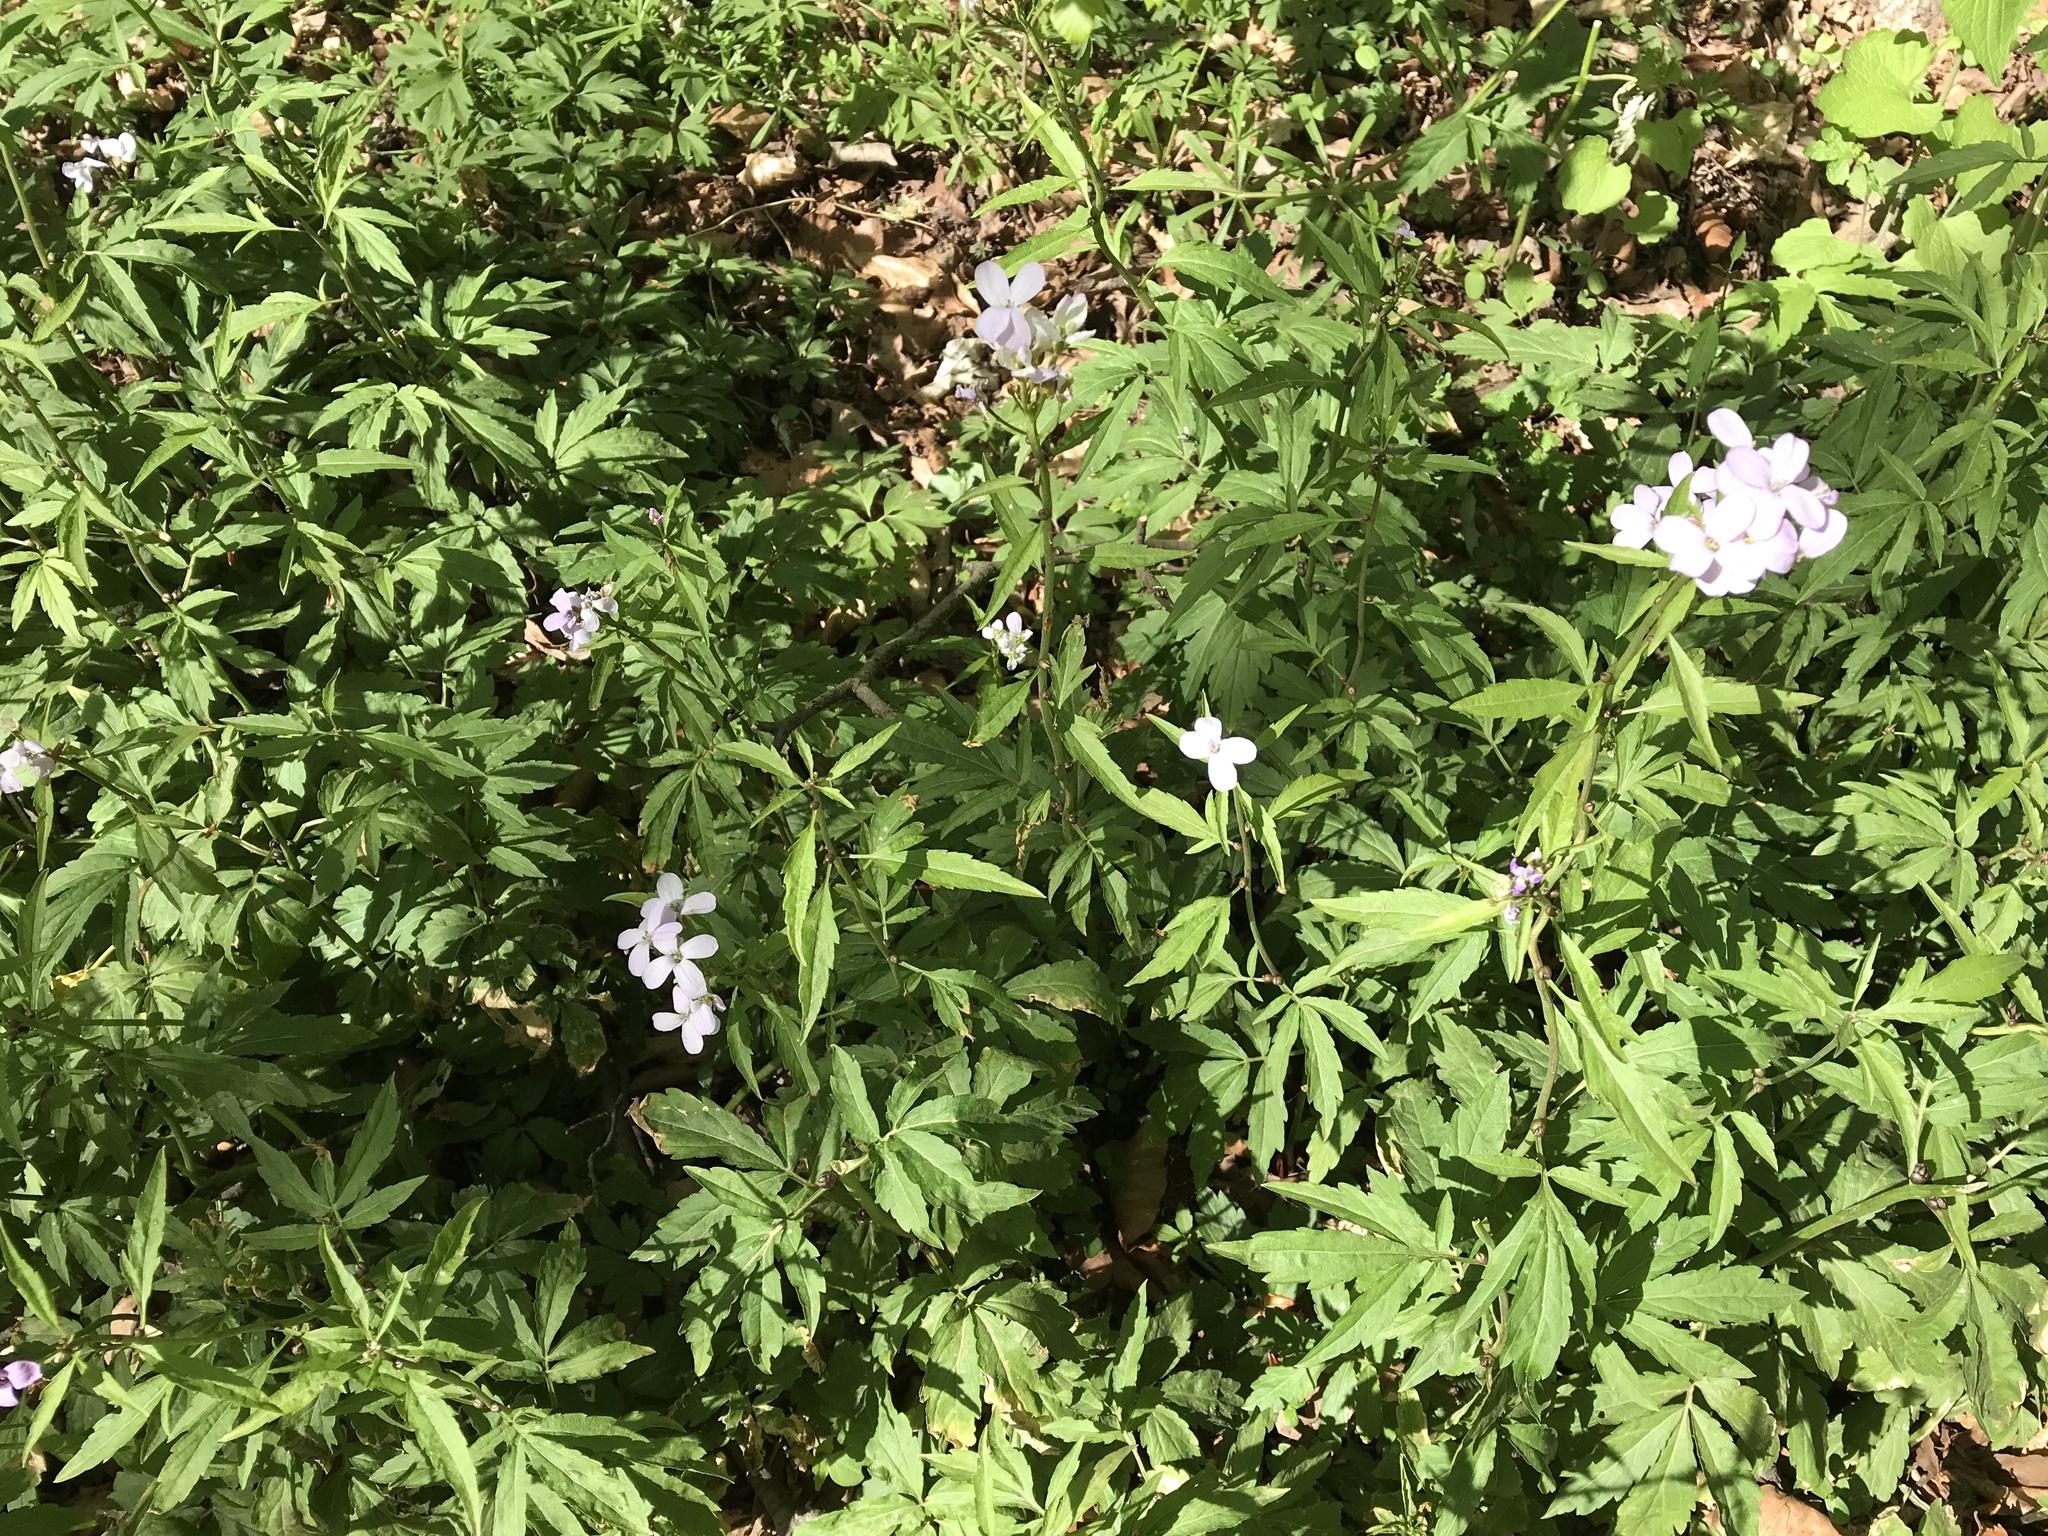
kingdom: Plantae
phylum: Tracheophyta
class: Magnoliopsida
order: Brassicales
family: Brassicaceae
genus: Cardamine
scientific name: Cardamine bulbifera
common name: Coralroot bittercress
